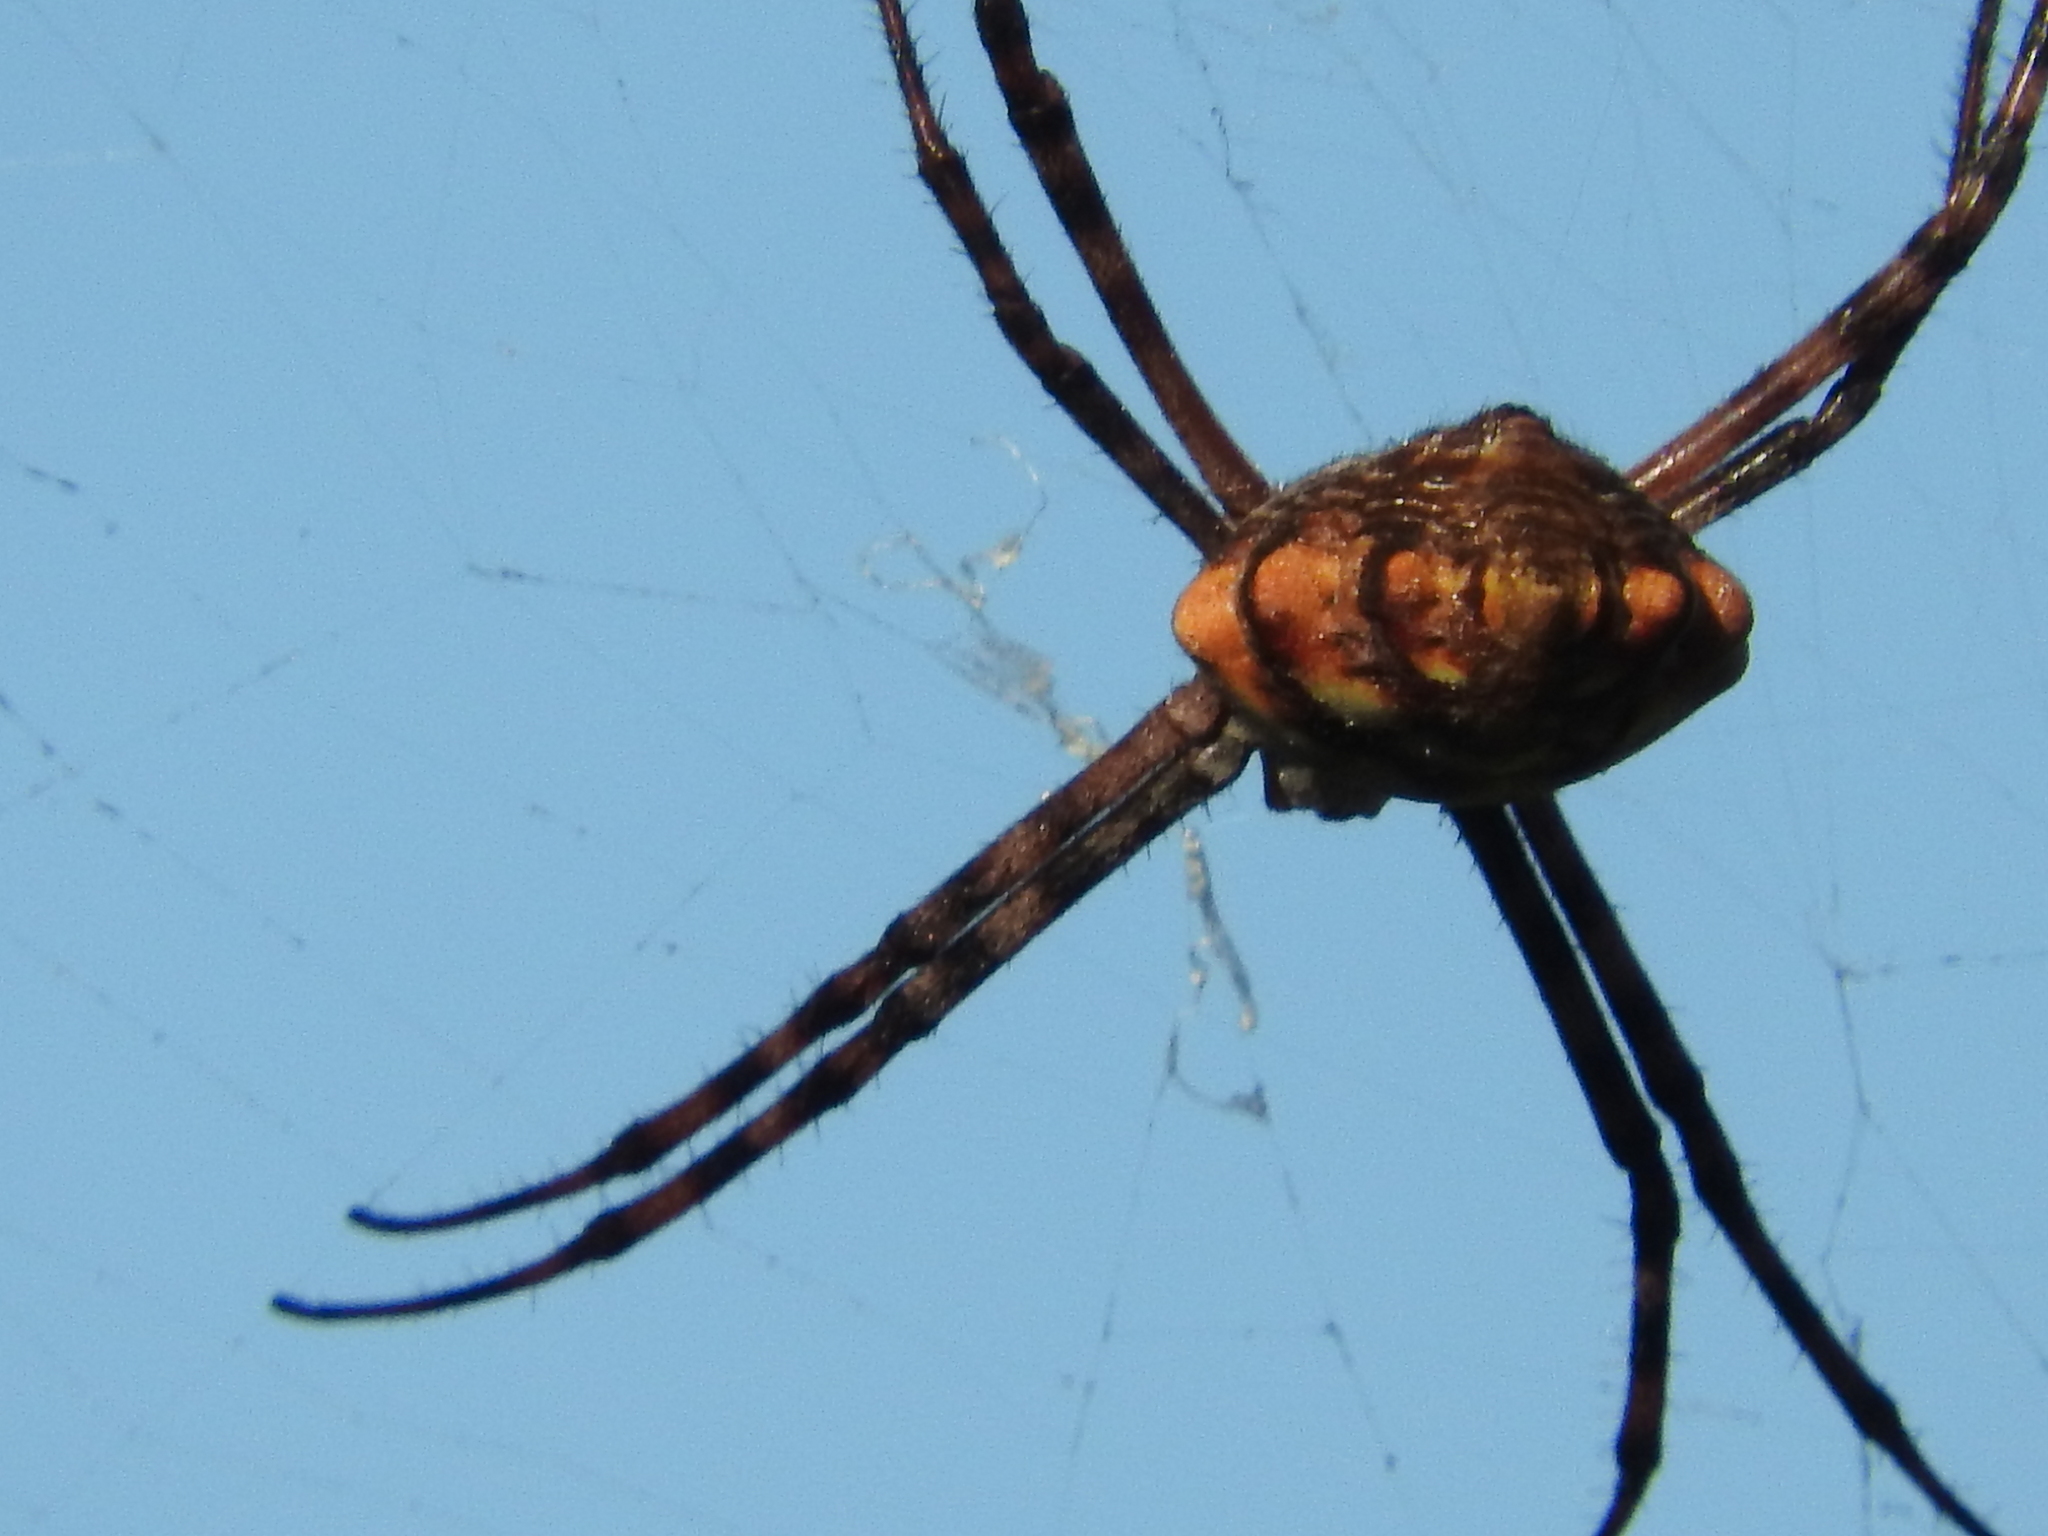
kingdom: Animalia
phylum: Arthropoda
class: Arachnida
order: Araneae
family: Araneidae
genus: Argiope
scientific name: Argiope lobata
